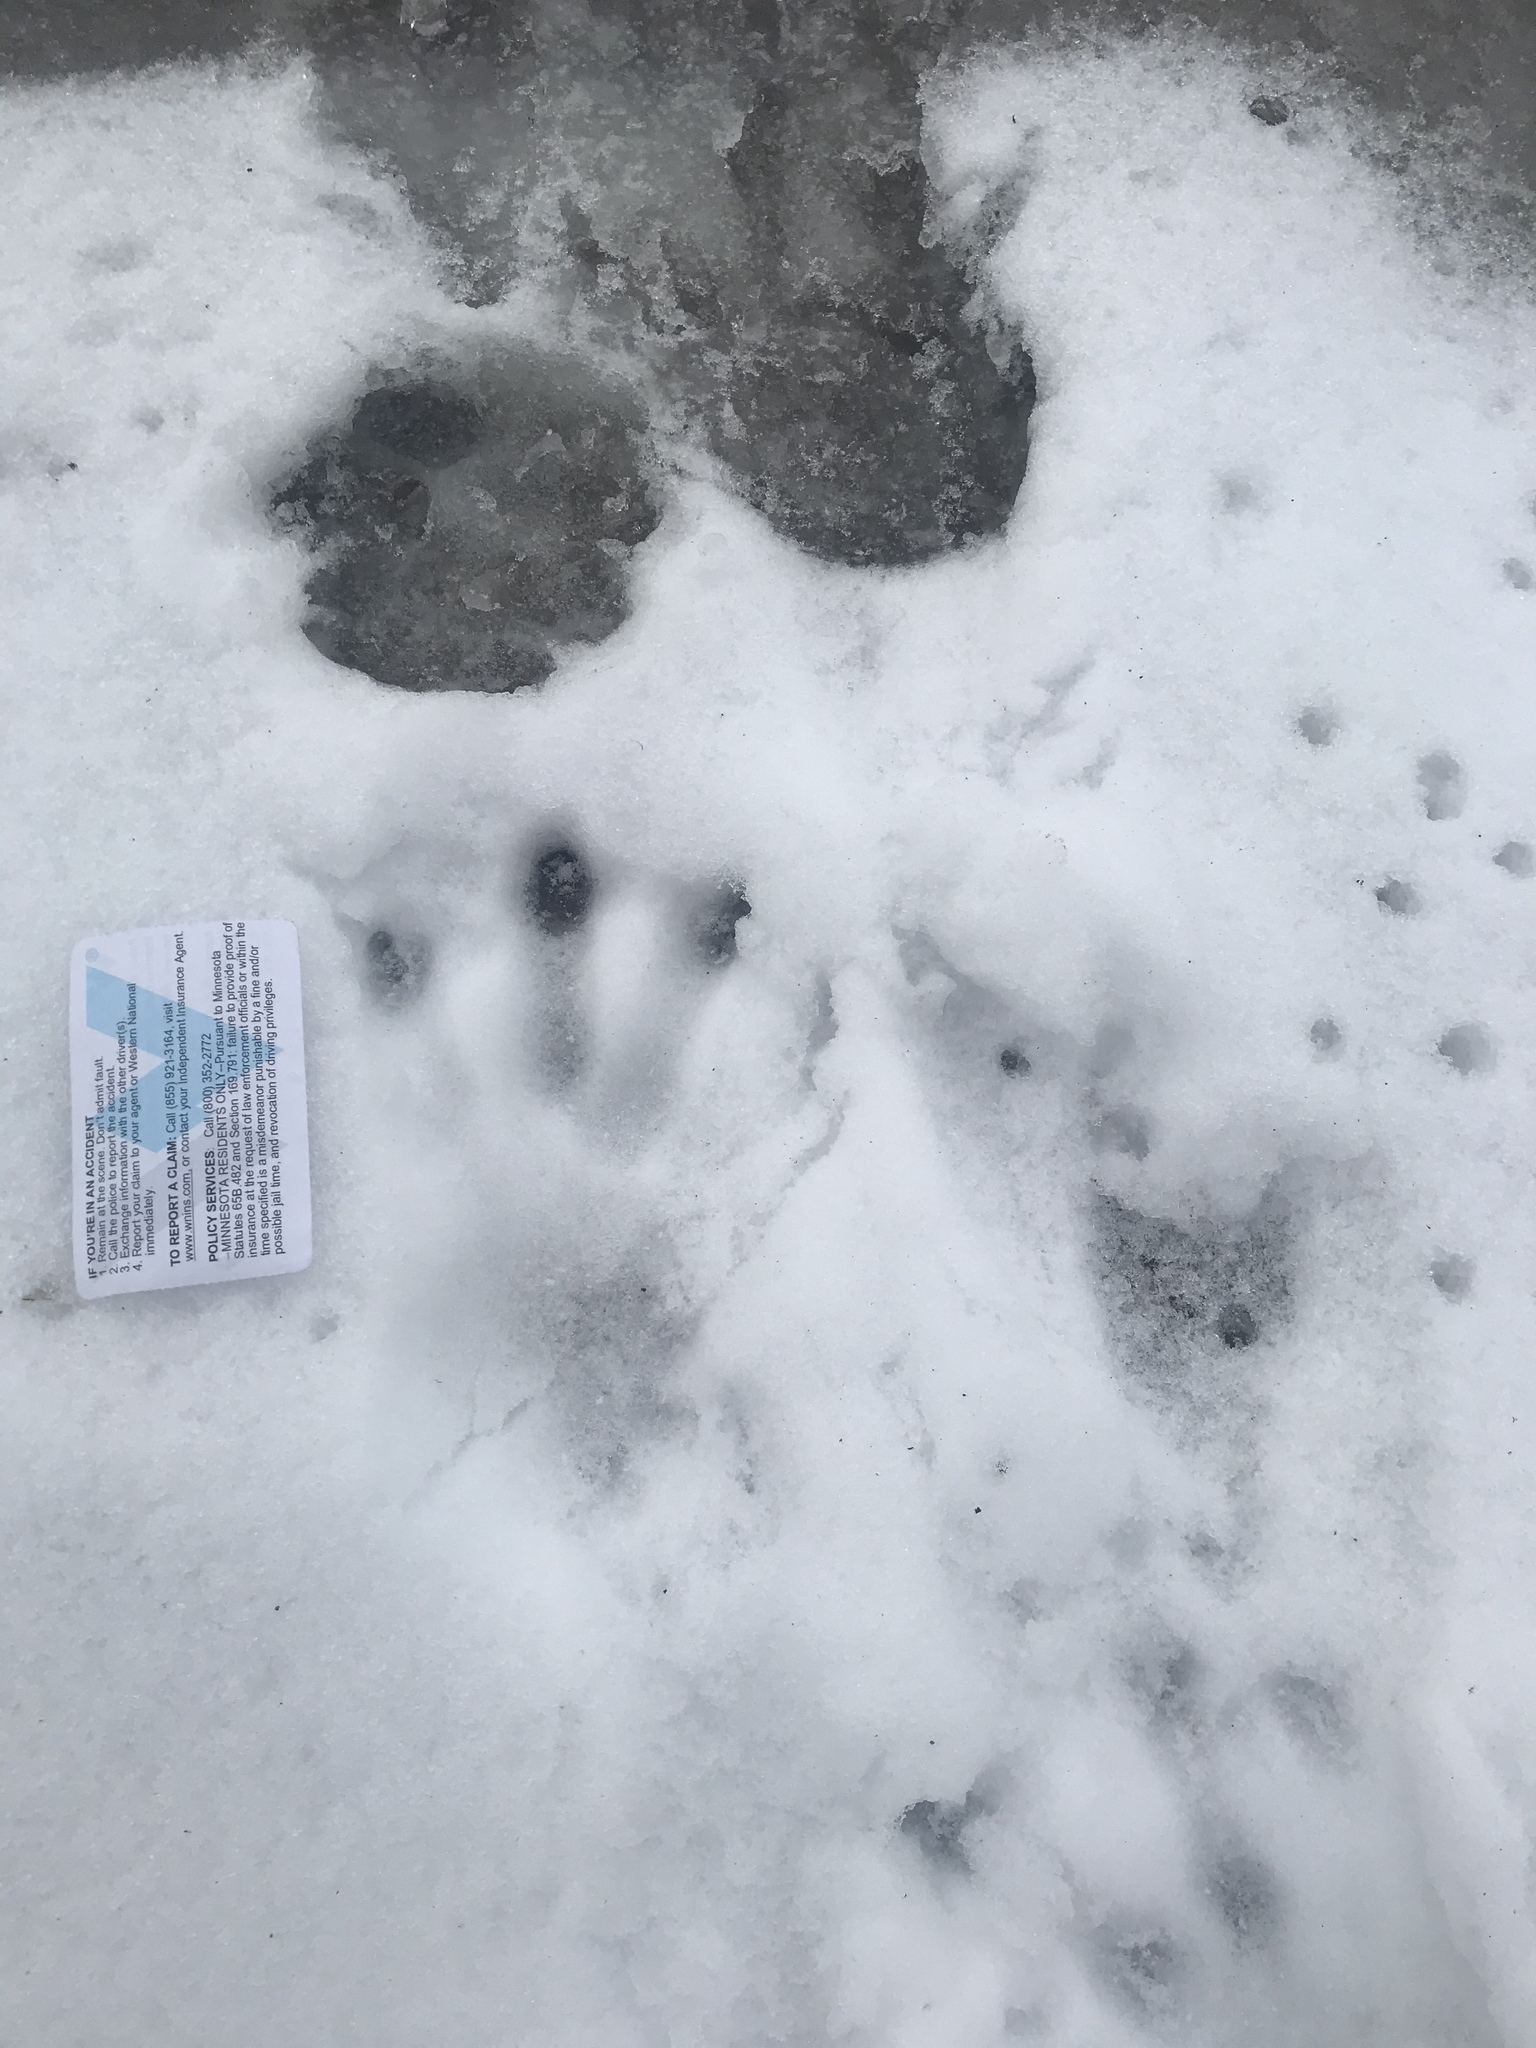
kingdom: Animalia
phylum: Chordata
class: Mammalia
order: Rodentia
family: Castoridae
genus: Castor
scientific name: Castor canadensis
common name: American beaver
